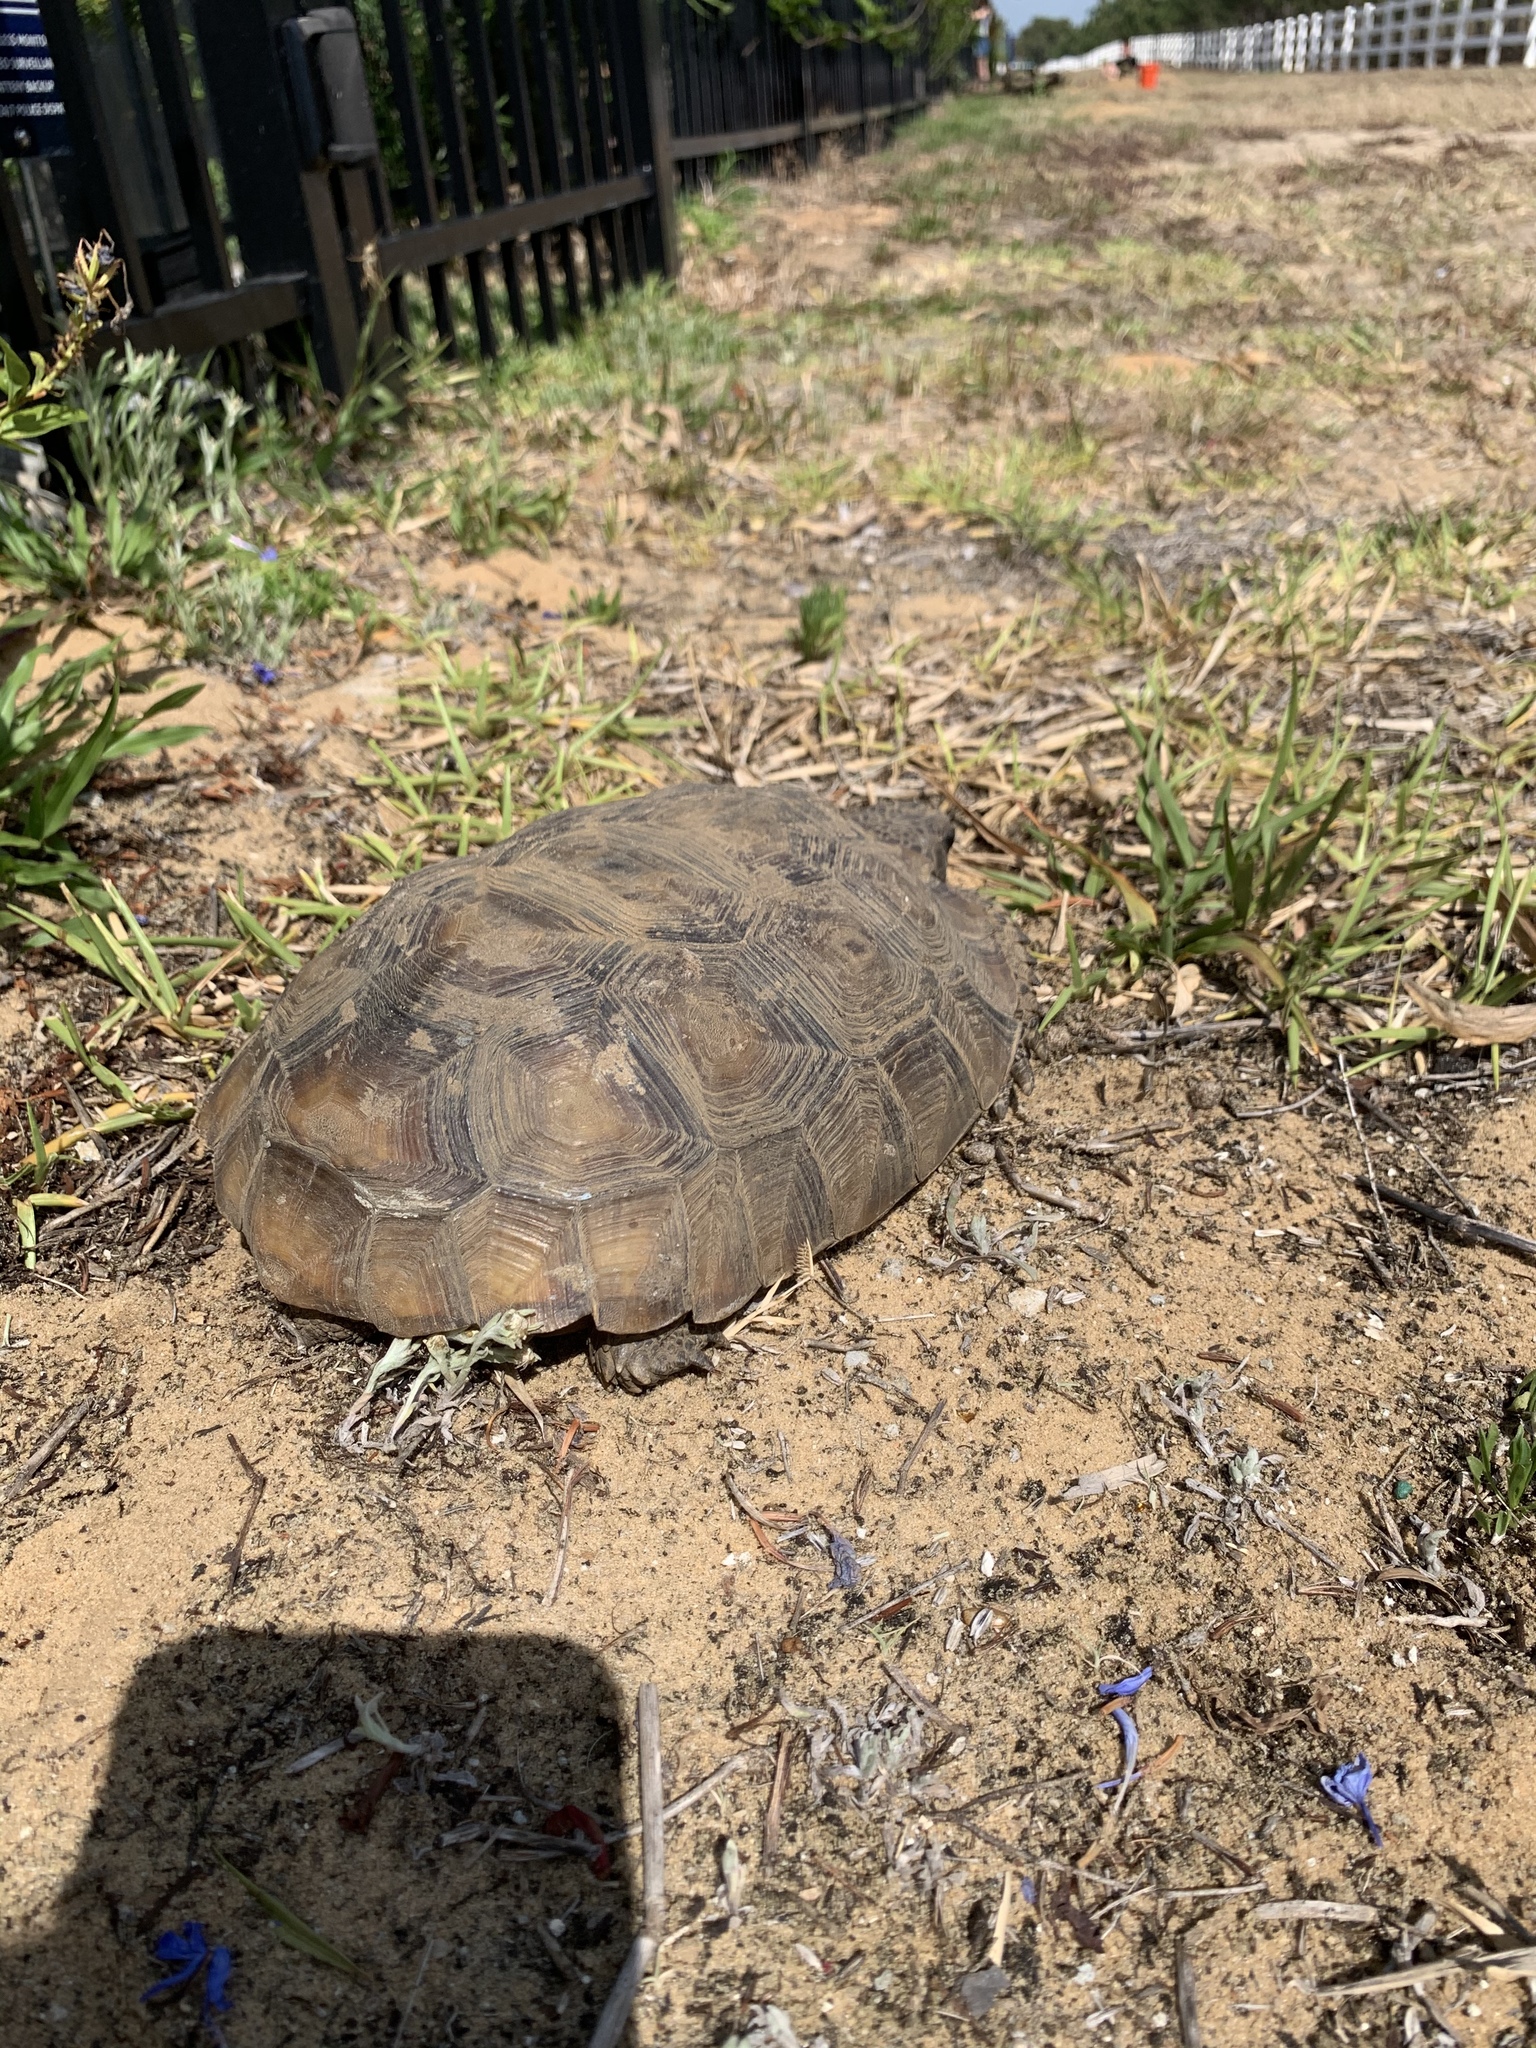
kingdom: Animalia
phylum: Chordata
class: Testudines
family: Testudinidae
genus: Gopherus
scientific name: Gopherus polyphemus
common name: Florida gopher tortoise
